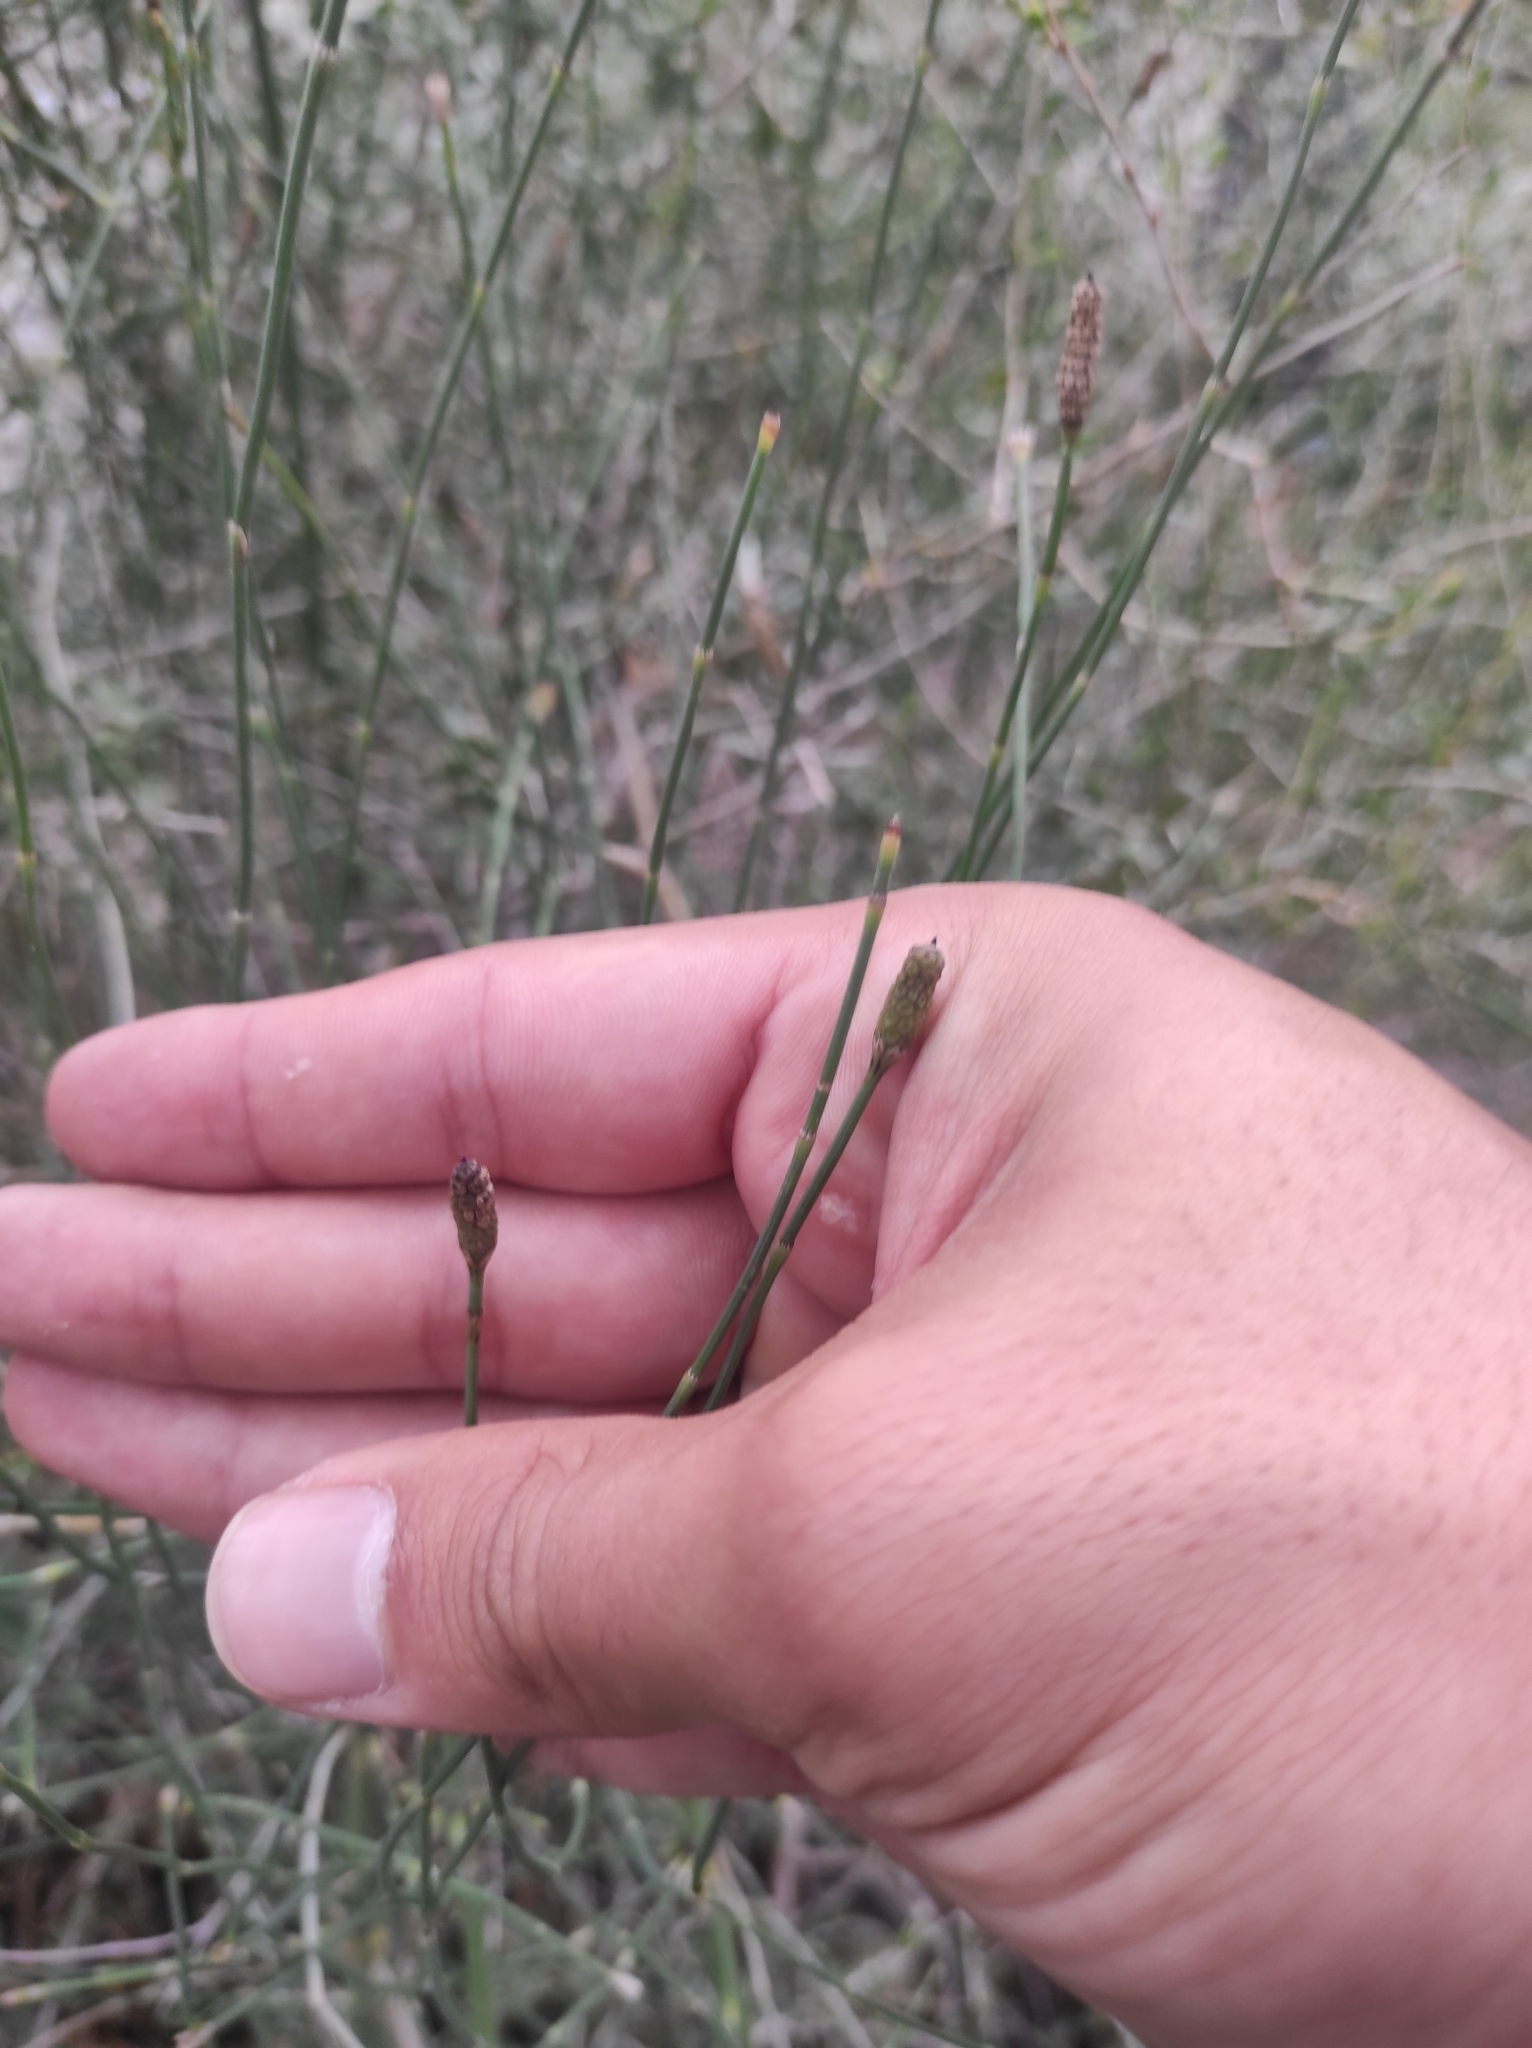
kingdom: Plantae
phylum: Tracheophyta
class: Polypodiopsida
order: Equisetales
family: Equisetaceae
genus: Equisetum
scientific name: Equisetum ramosissimum
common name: Branched horsetail
